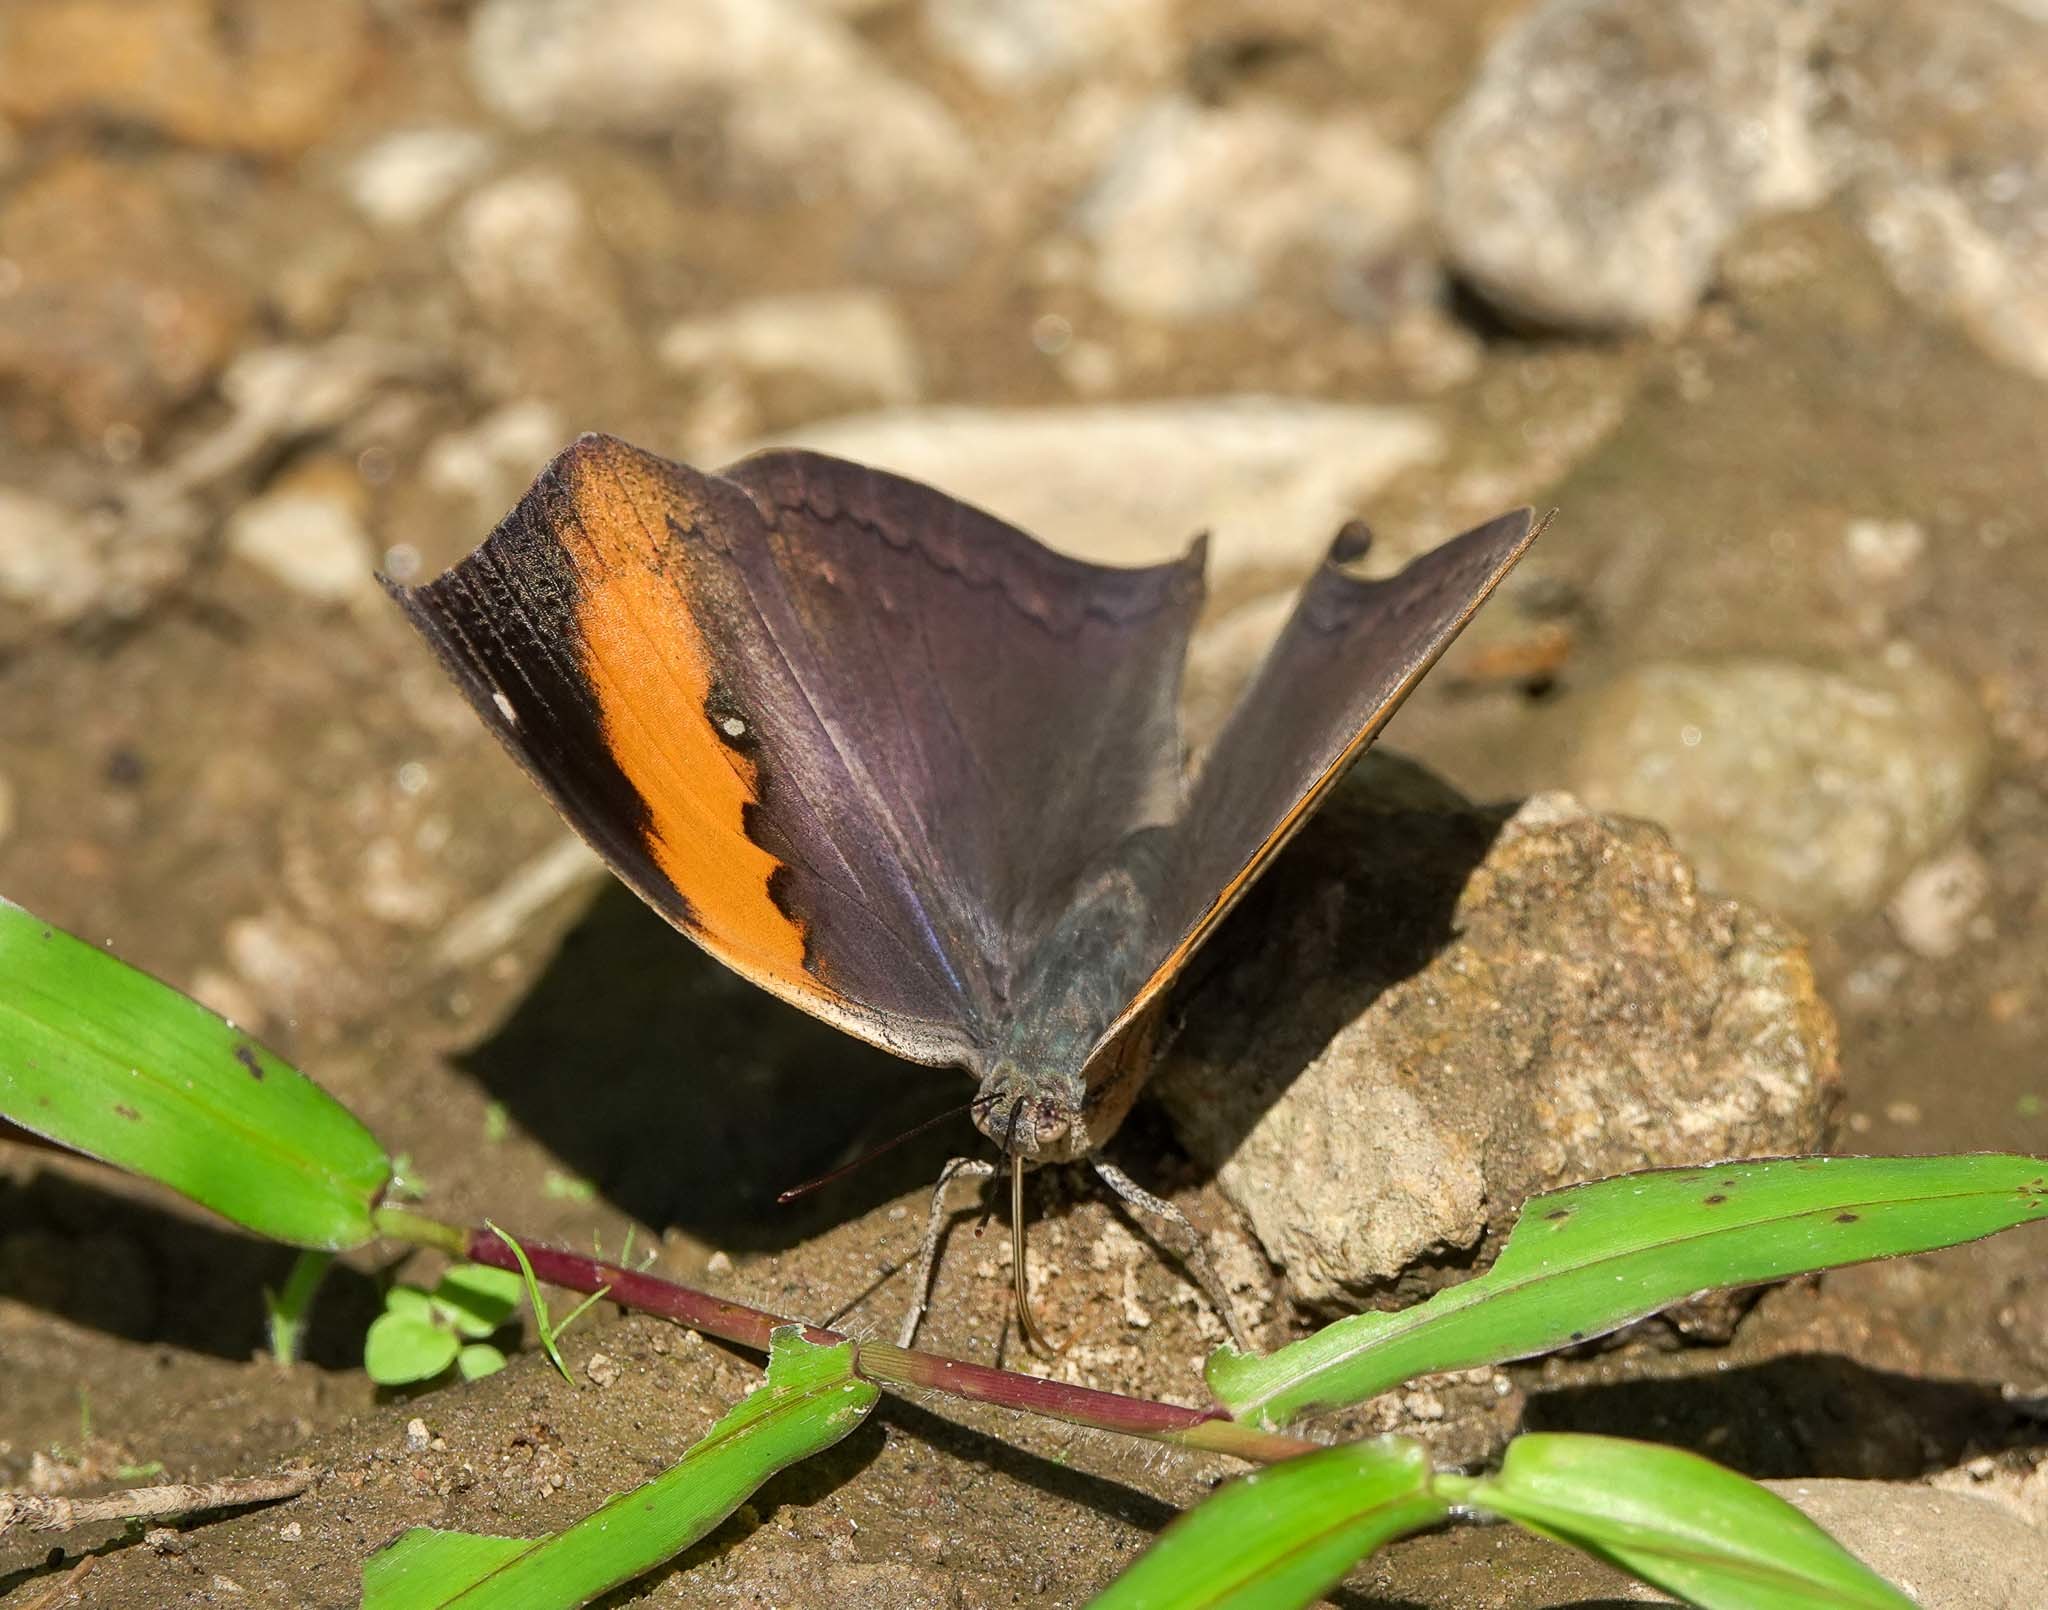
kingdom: Animalia
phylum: Arthropoda
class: Insecta
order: Lepidoptera
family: Nymphalidae
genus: Kallima
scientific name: Kallima inachus
